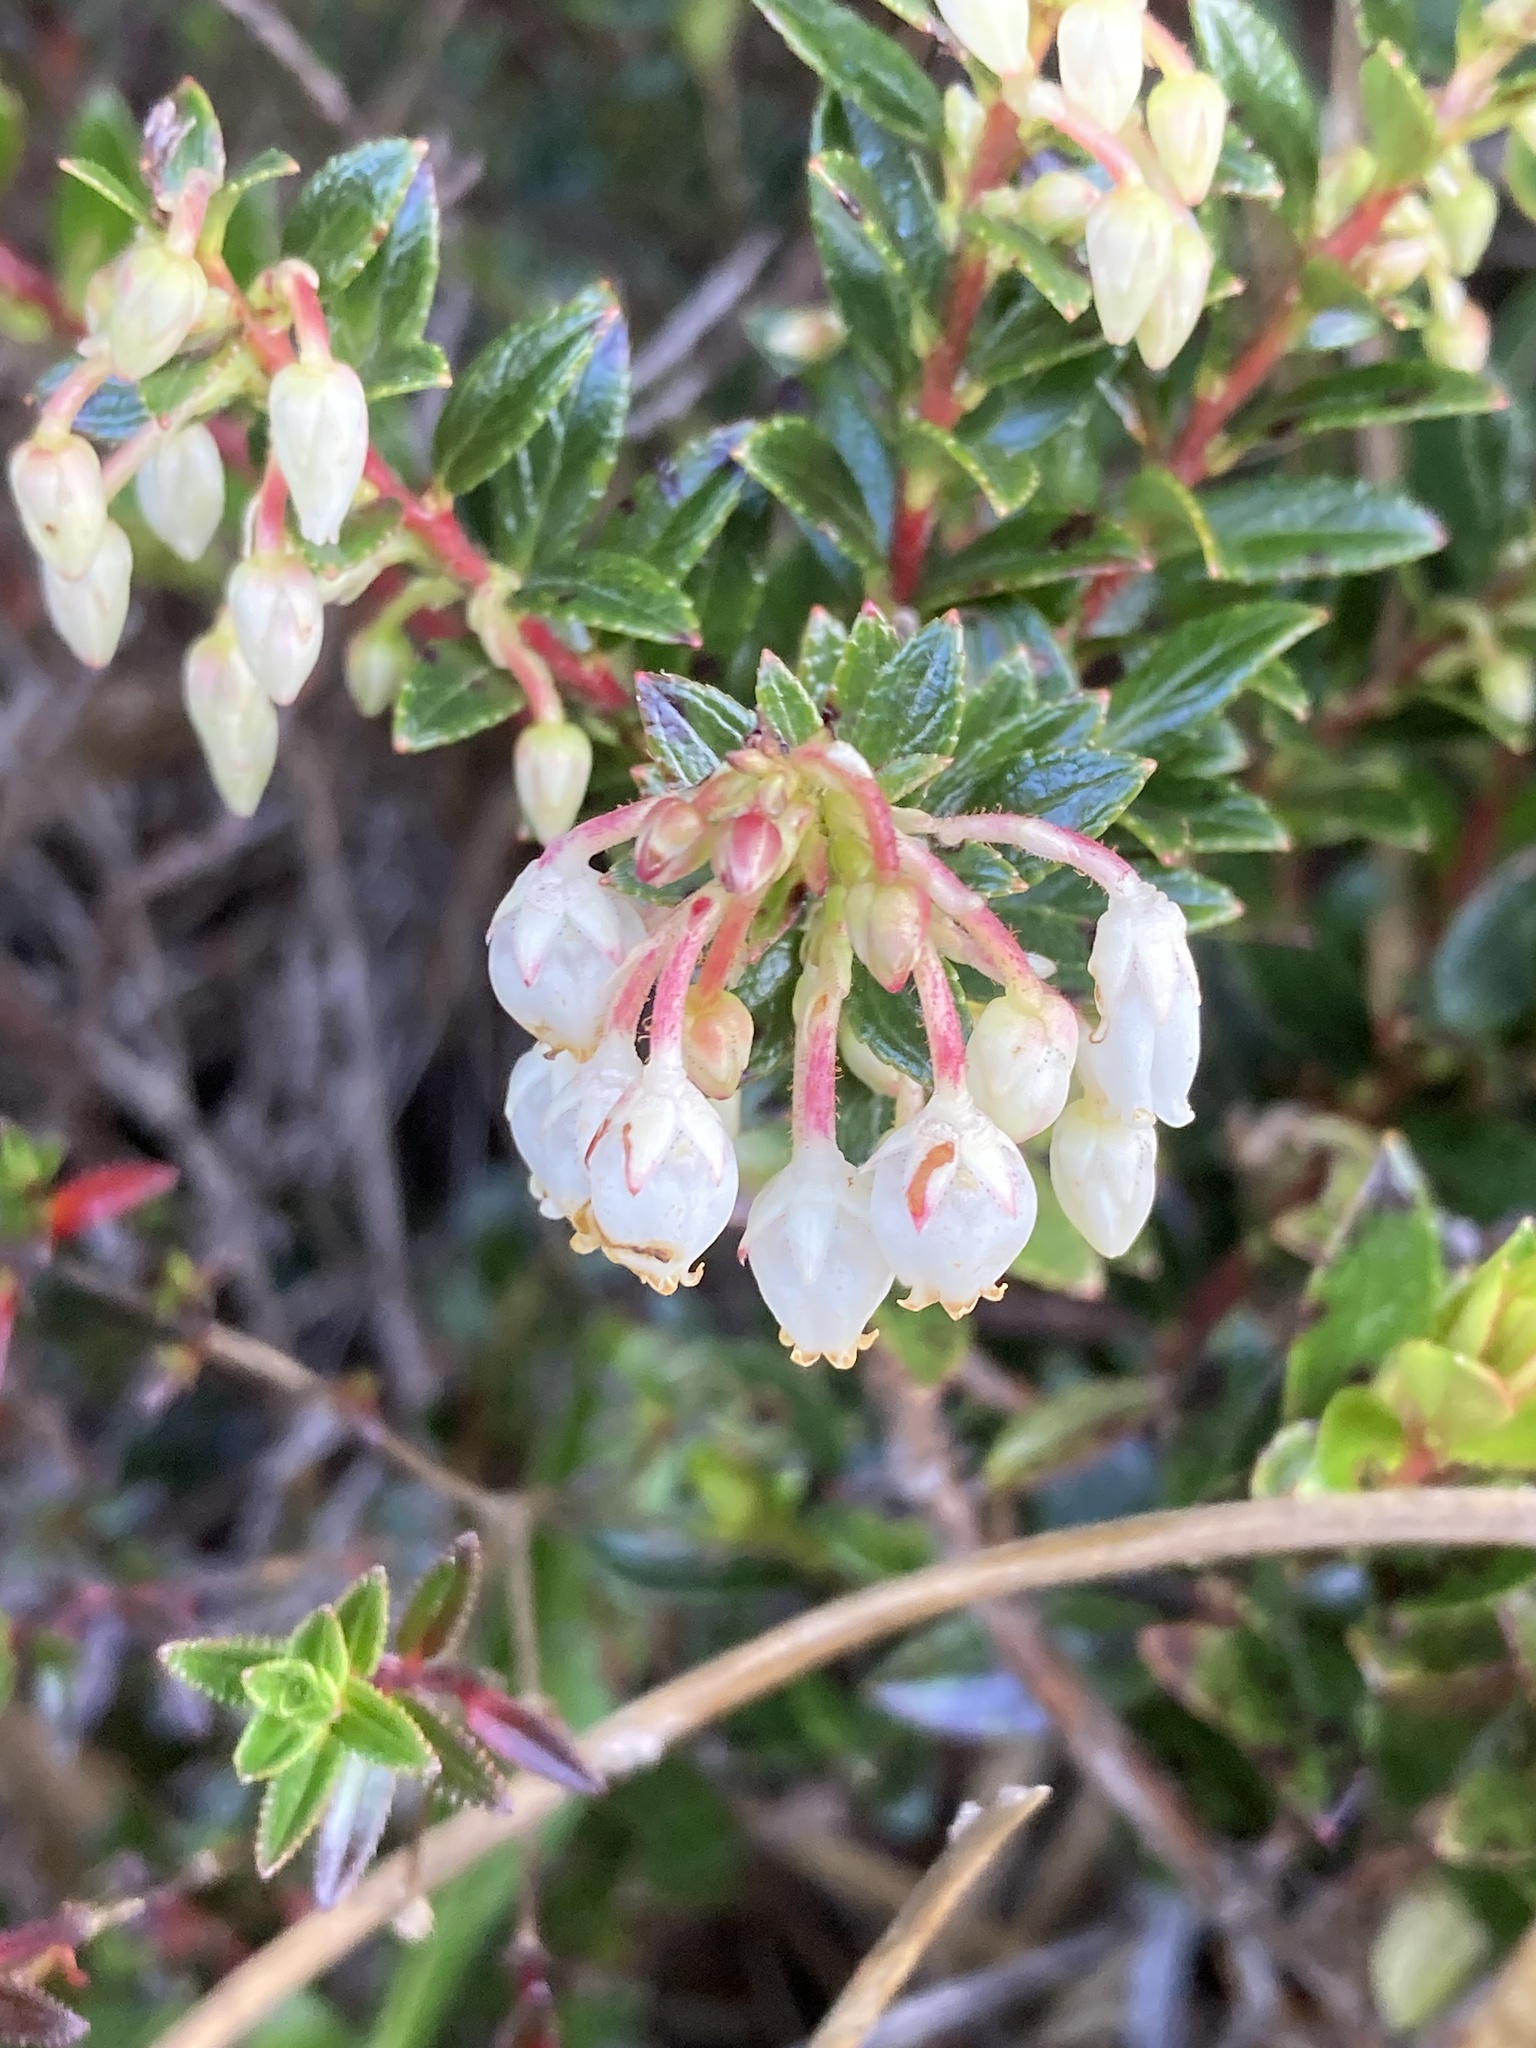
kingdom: Plantae
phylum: Tracheophyta
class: Magnoliopsida
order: Ericales
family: Ericaceae
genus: Gaultheria
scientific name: Gaultheria myrsinoides
